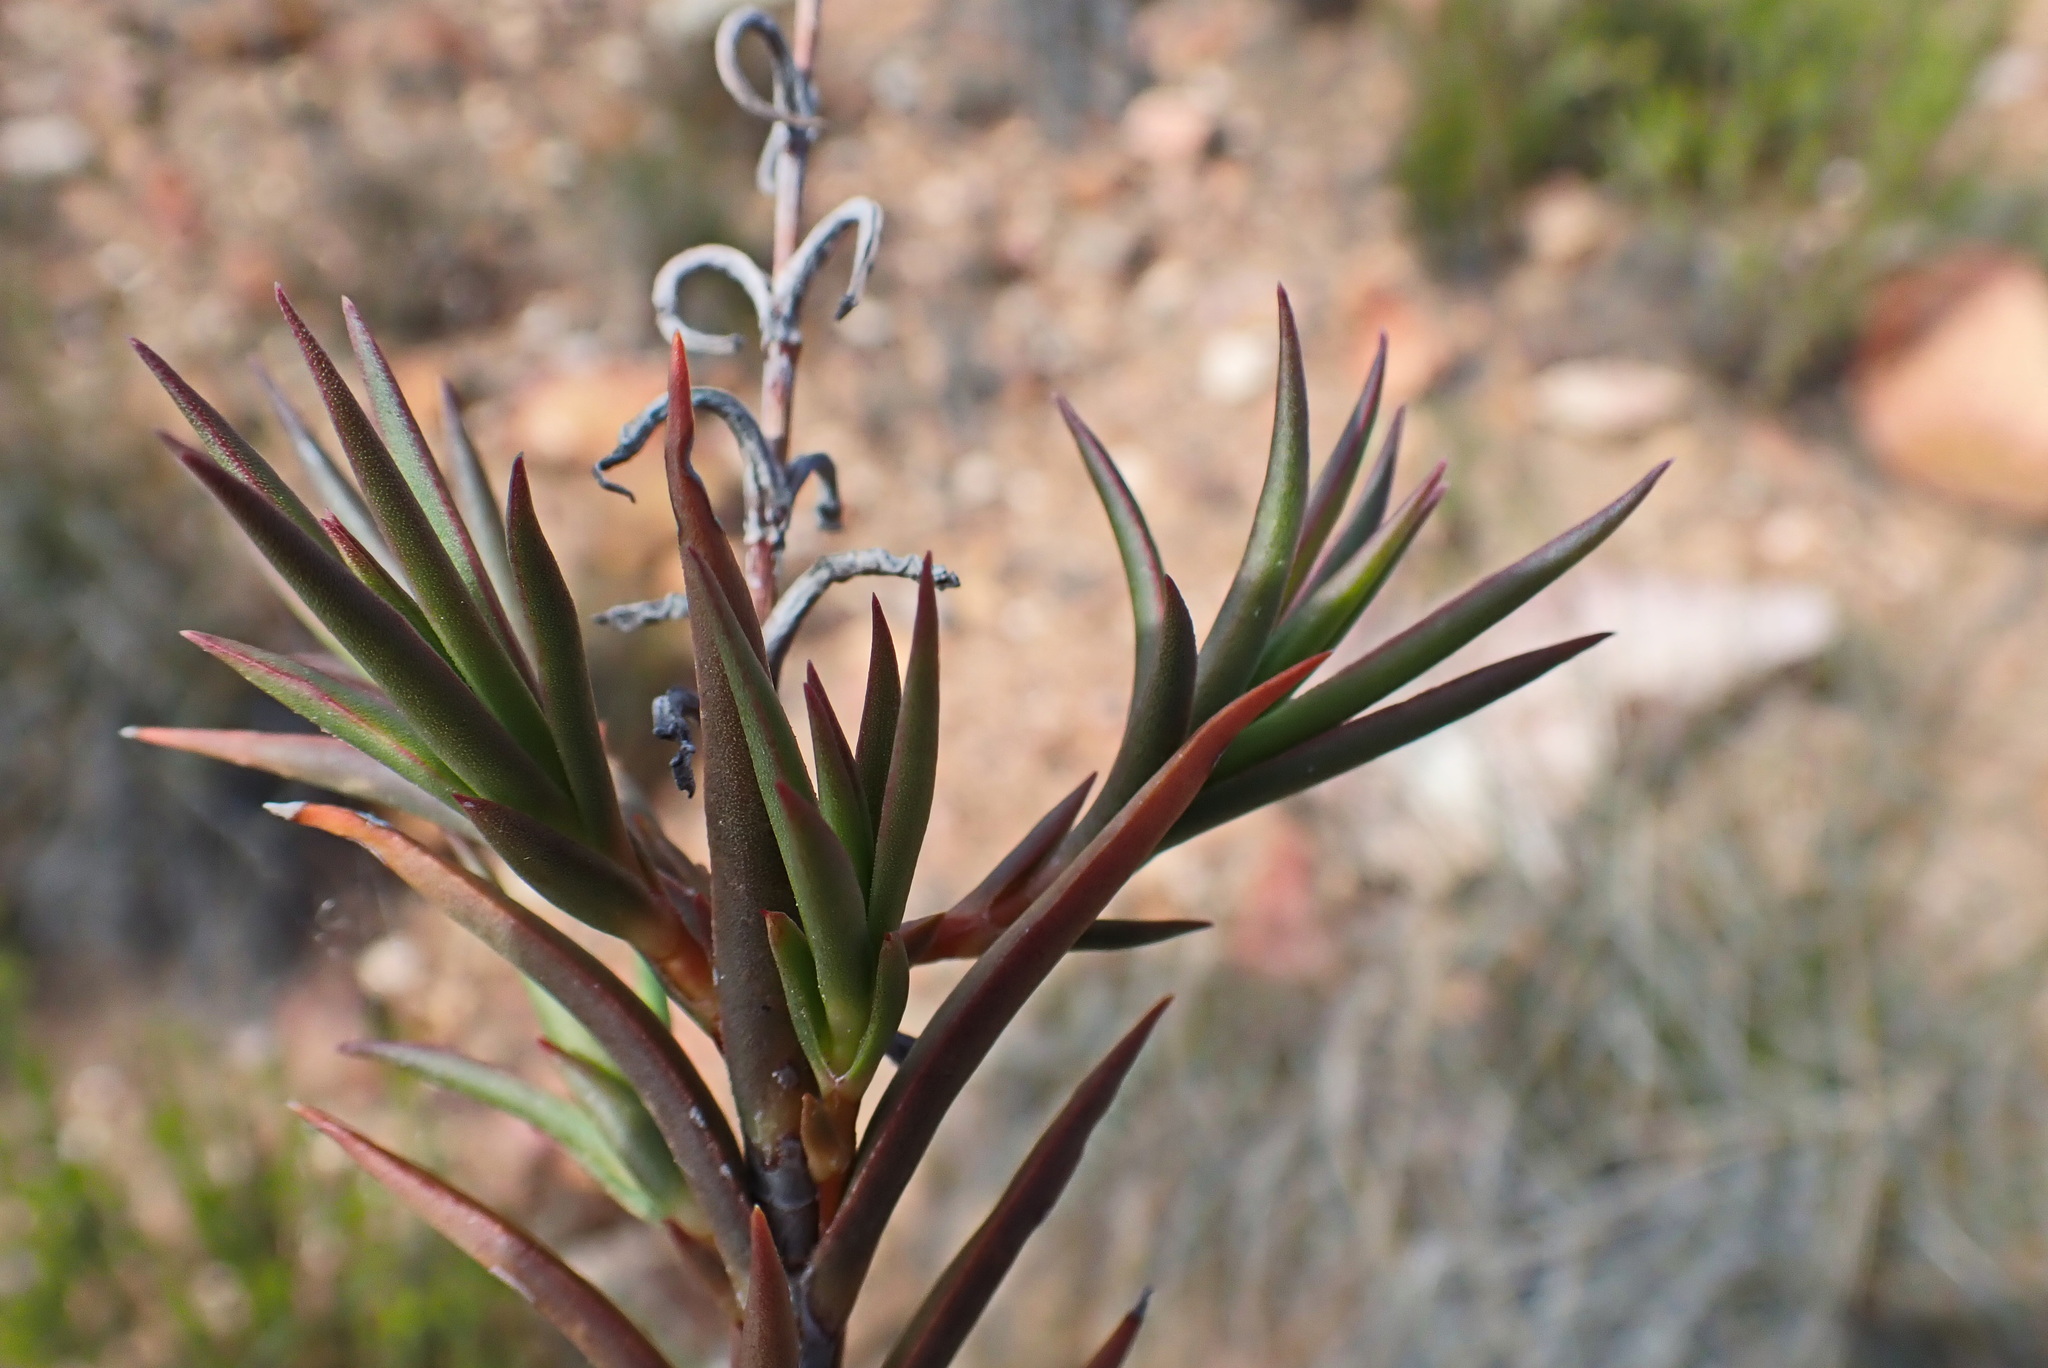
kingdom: Plantae
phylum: Tracheophyta
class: Magnoliopsida
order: Saxifragales
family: Crassulaceae
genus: Crassula
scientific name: Crassula subulata
